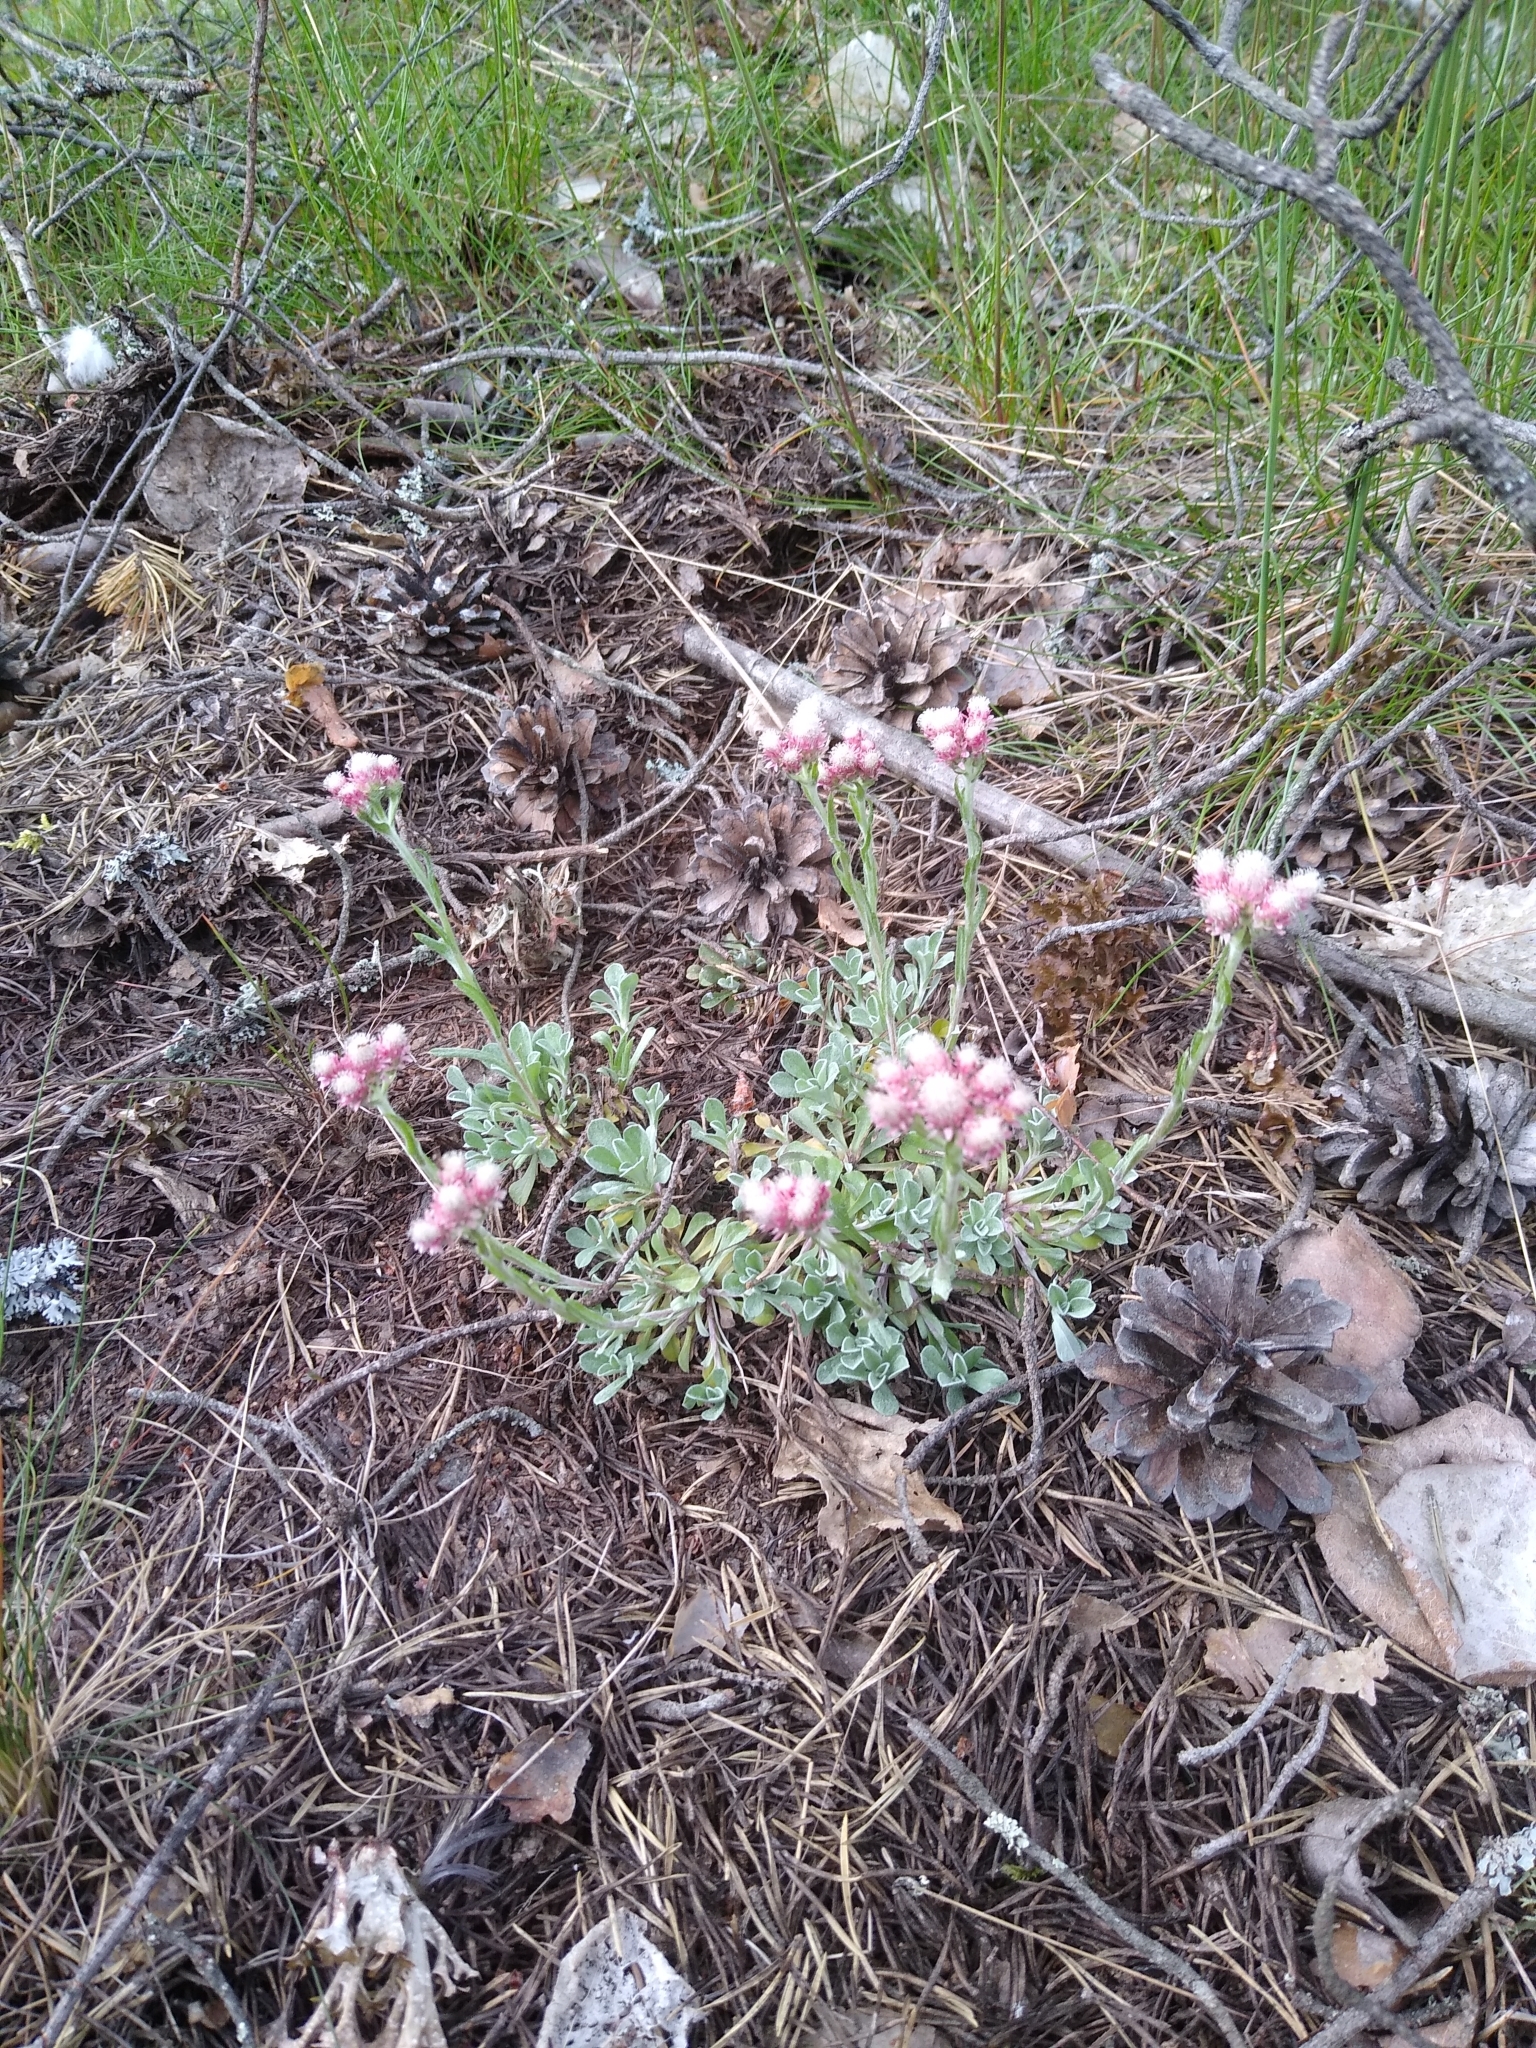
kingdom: Plantae
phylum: Tracheophyta
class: Magnoliopsida
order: Asterales
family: Asteraceae
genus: Antennaria
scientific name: Antennaria dioica
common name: Mountain everlasting
